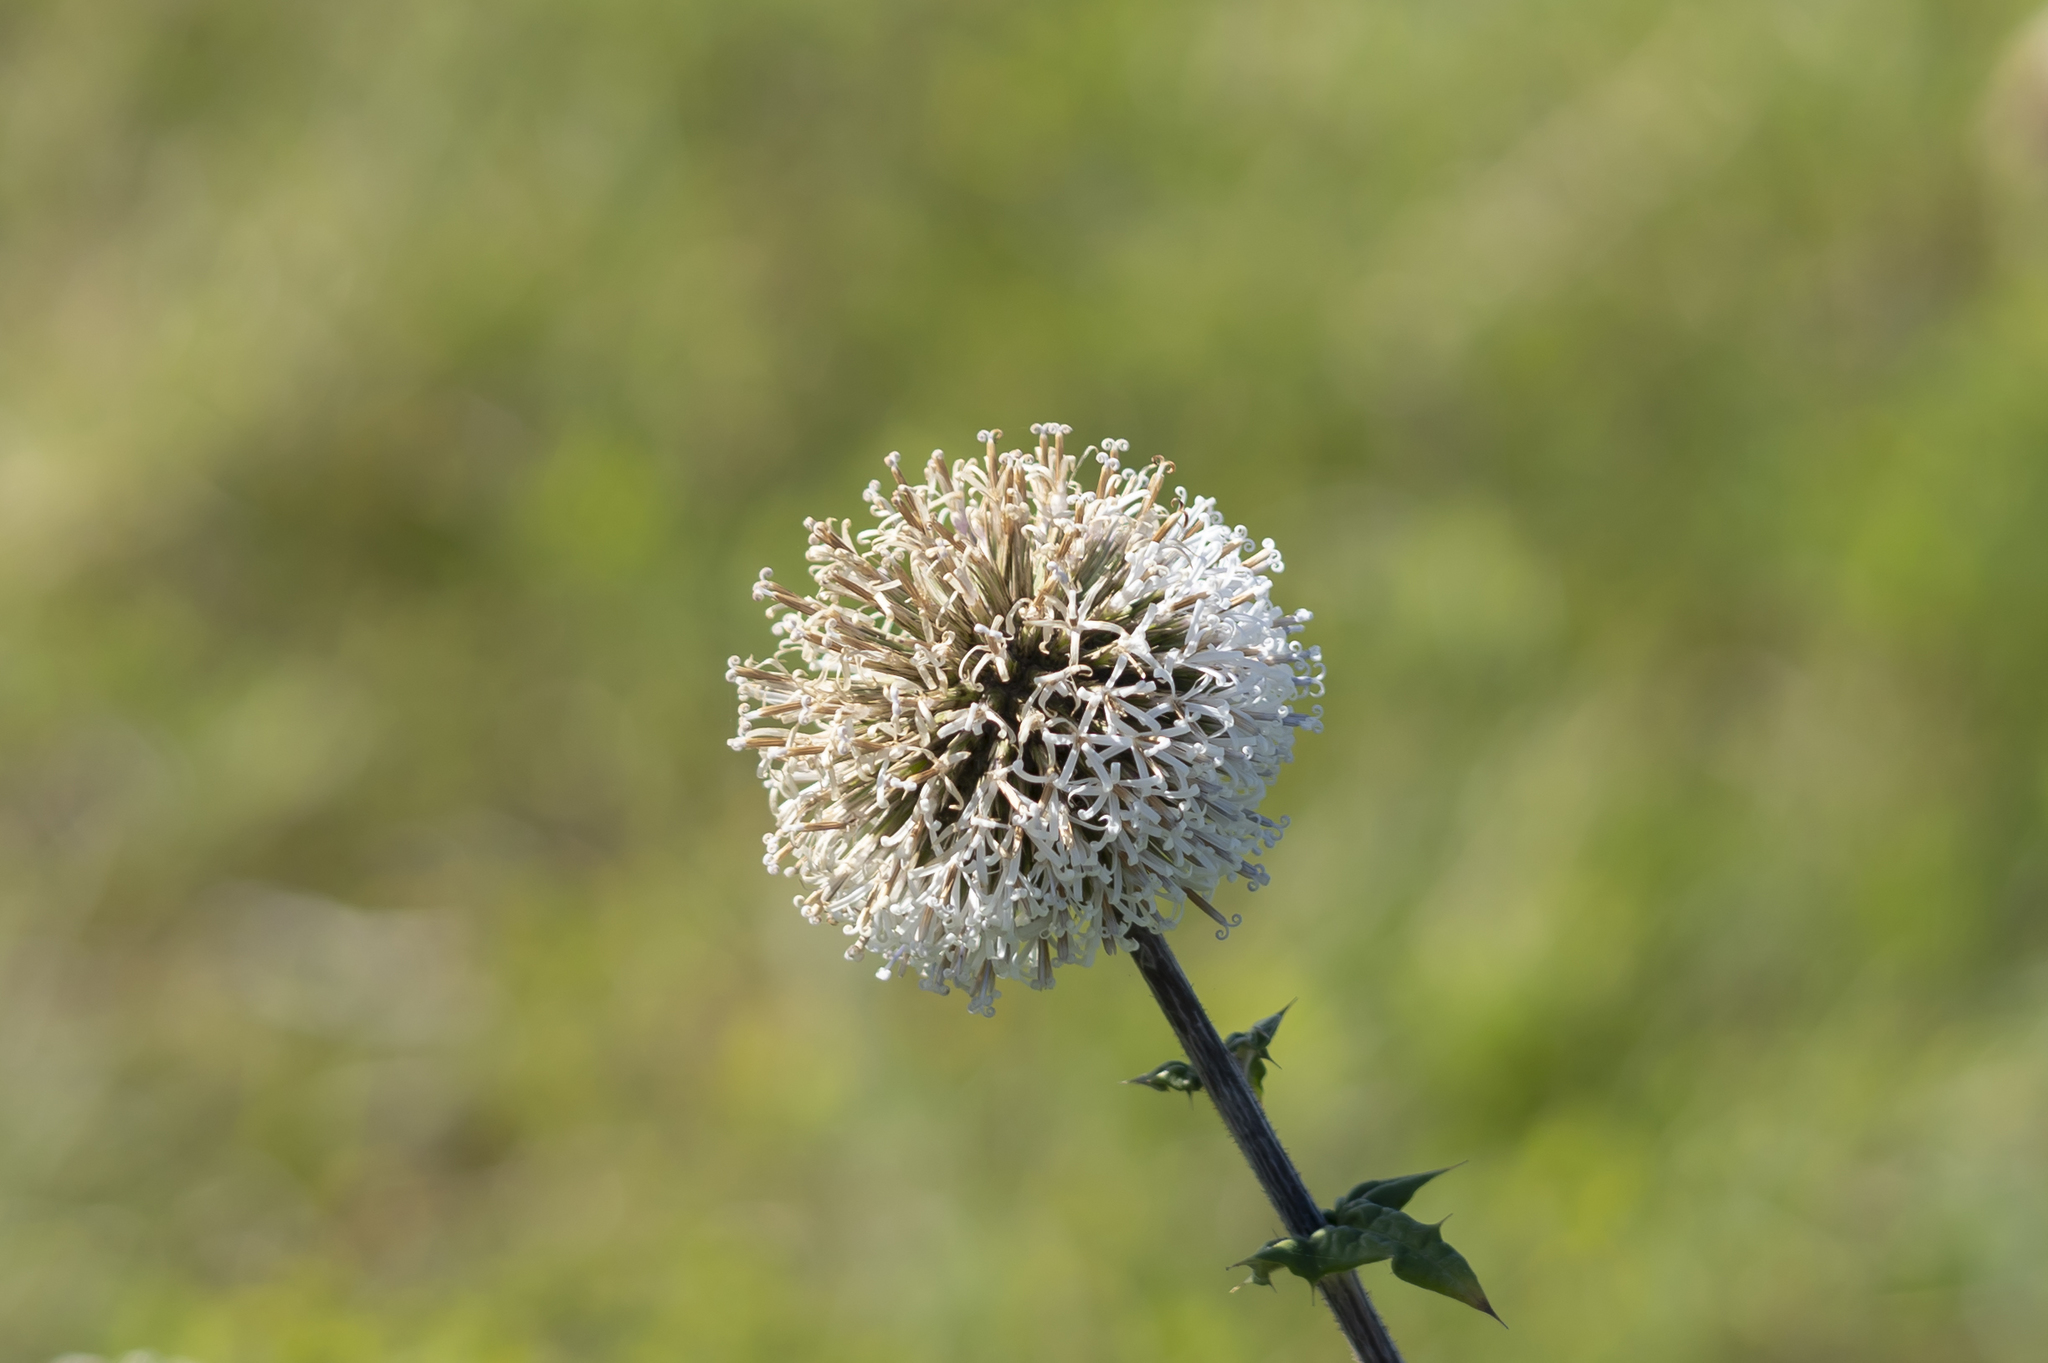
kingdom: Plantae
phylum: Tracheophyta
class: Magnoliopsida
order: Asterales
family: Asteraceae
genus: Echinops
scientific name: Echinops spinosissimus
